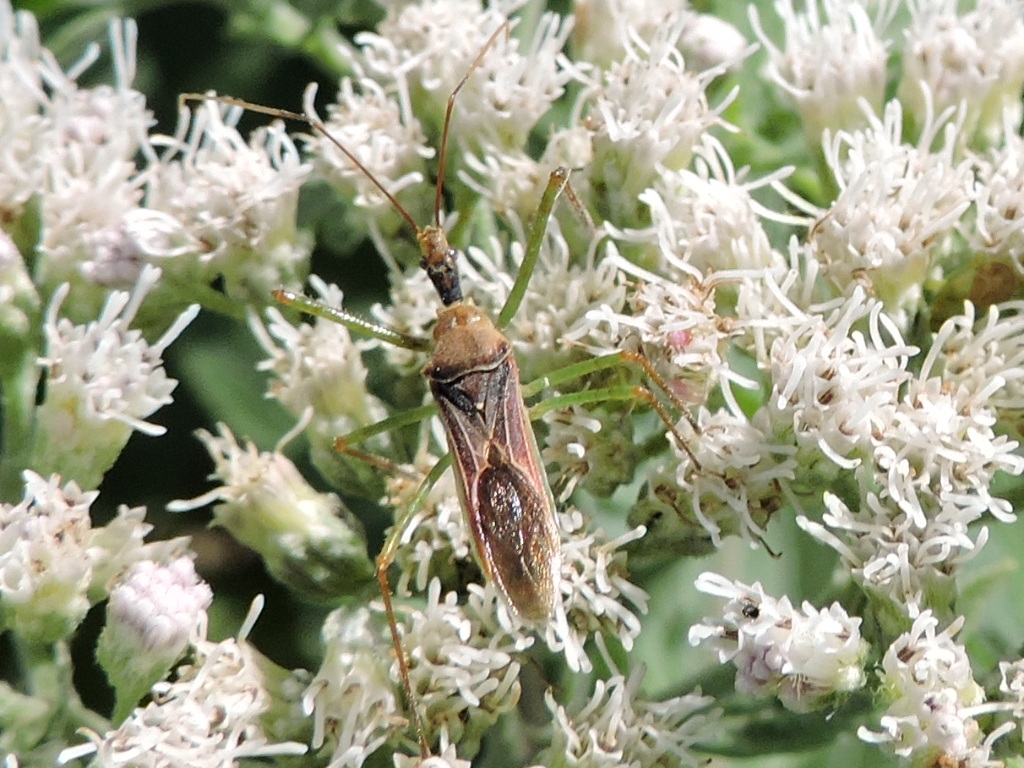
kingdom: Animalia
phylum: Arthropoda
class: Insecta
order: Hemiptera
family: Reduviidae
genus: Zelus
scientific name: Zelus renardii
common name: Assassin bug
